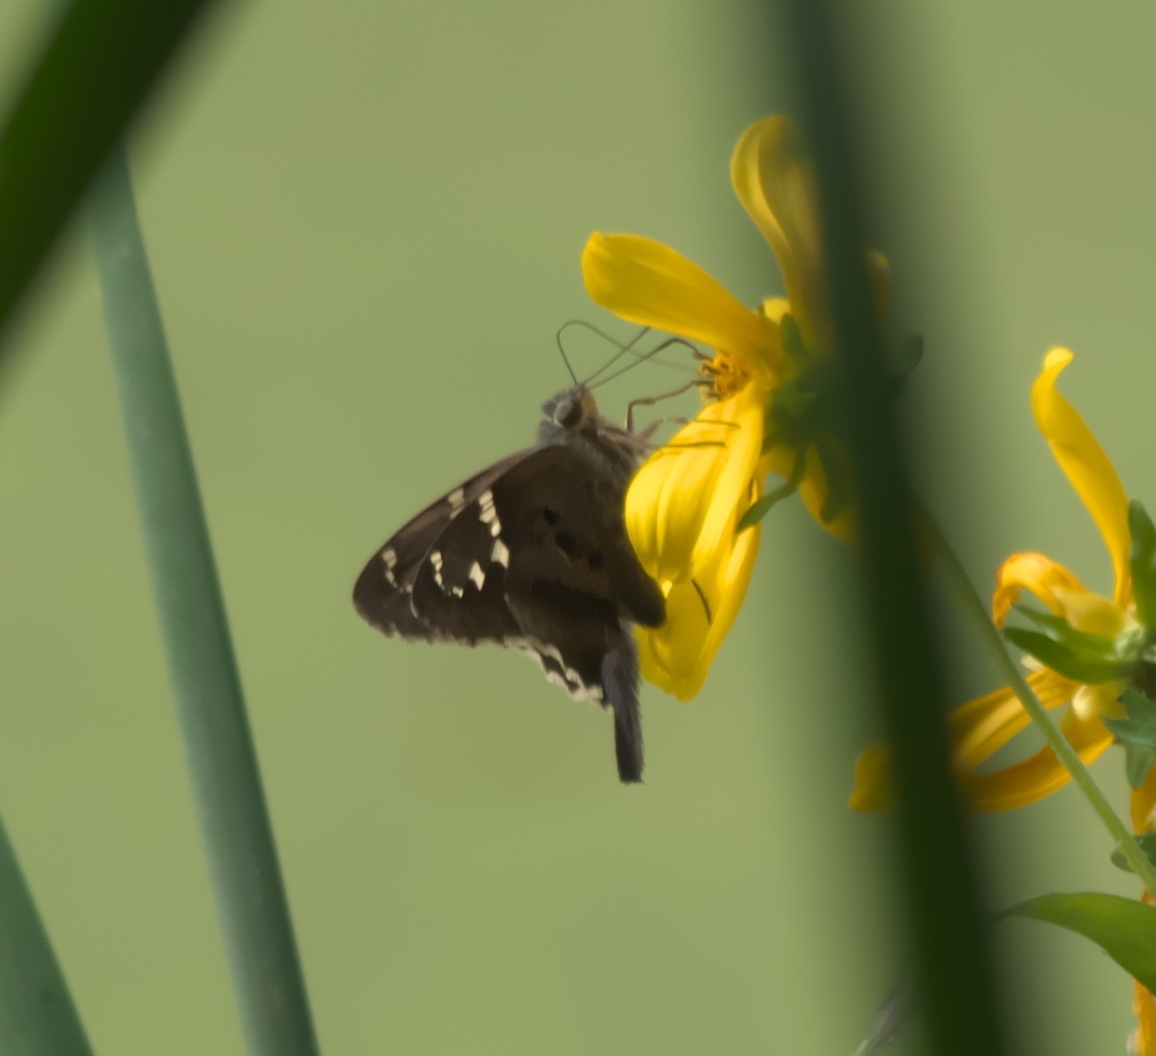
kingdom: Animalia
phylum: Arthropoda
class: Insecta
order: Lepidoptera
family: Hesperiidae
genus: Urbanus
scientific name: Urbanus proteus
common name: Long-tailed skipper
